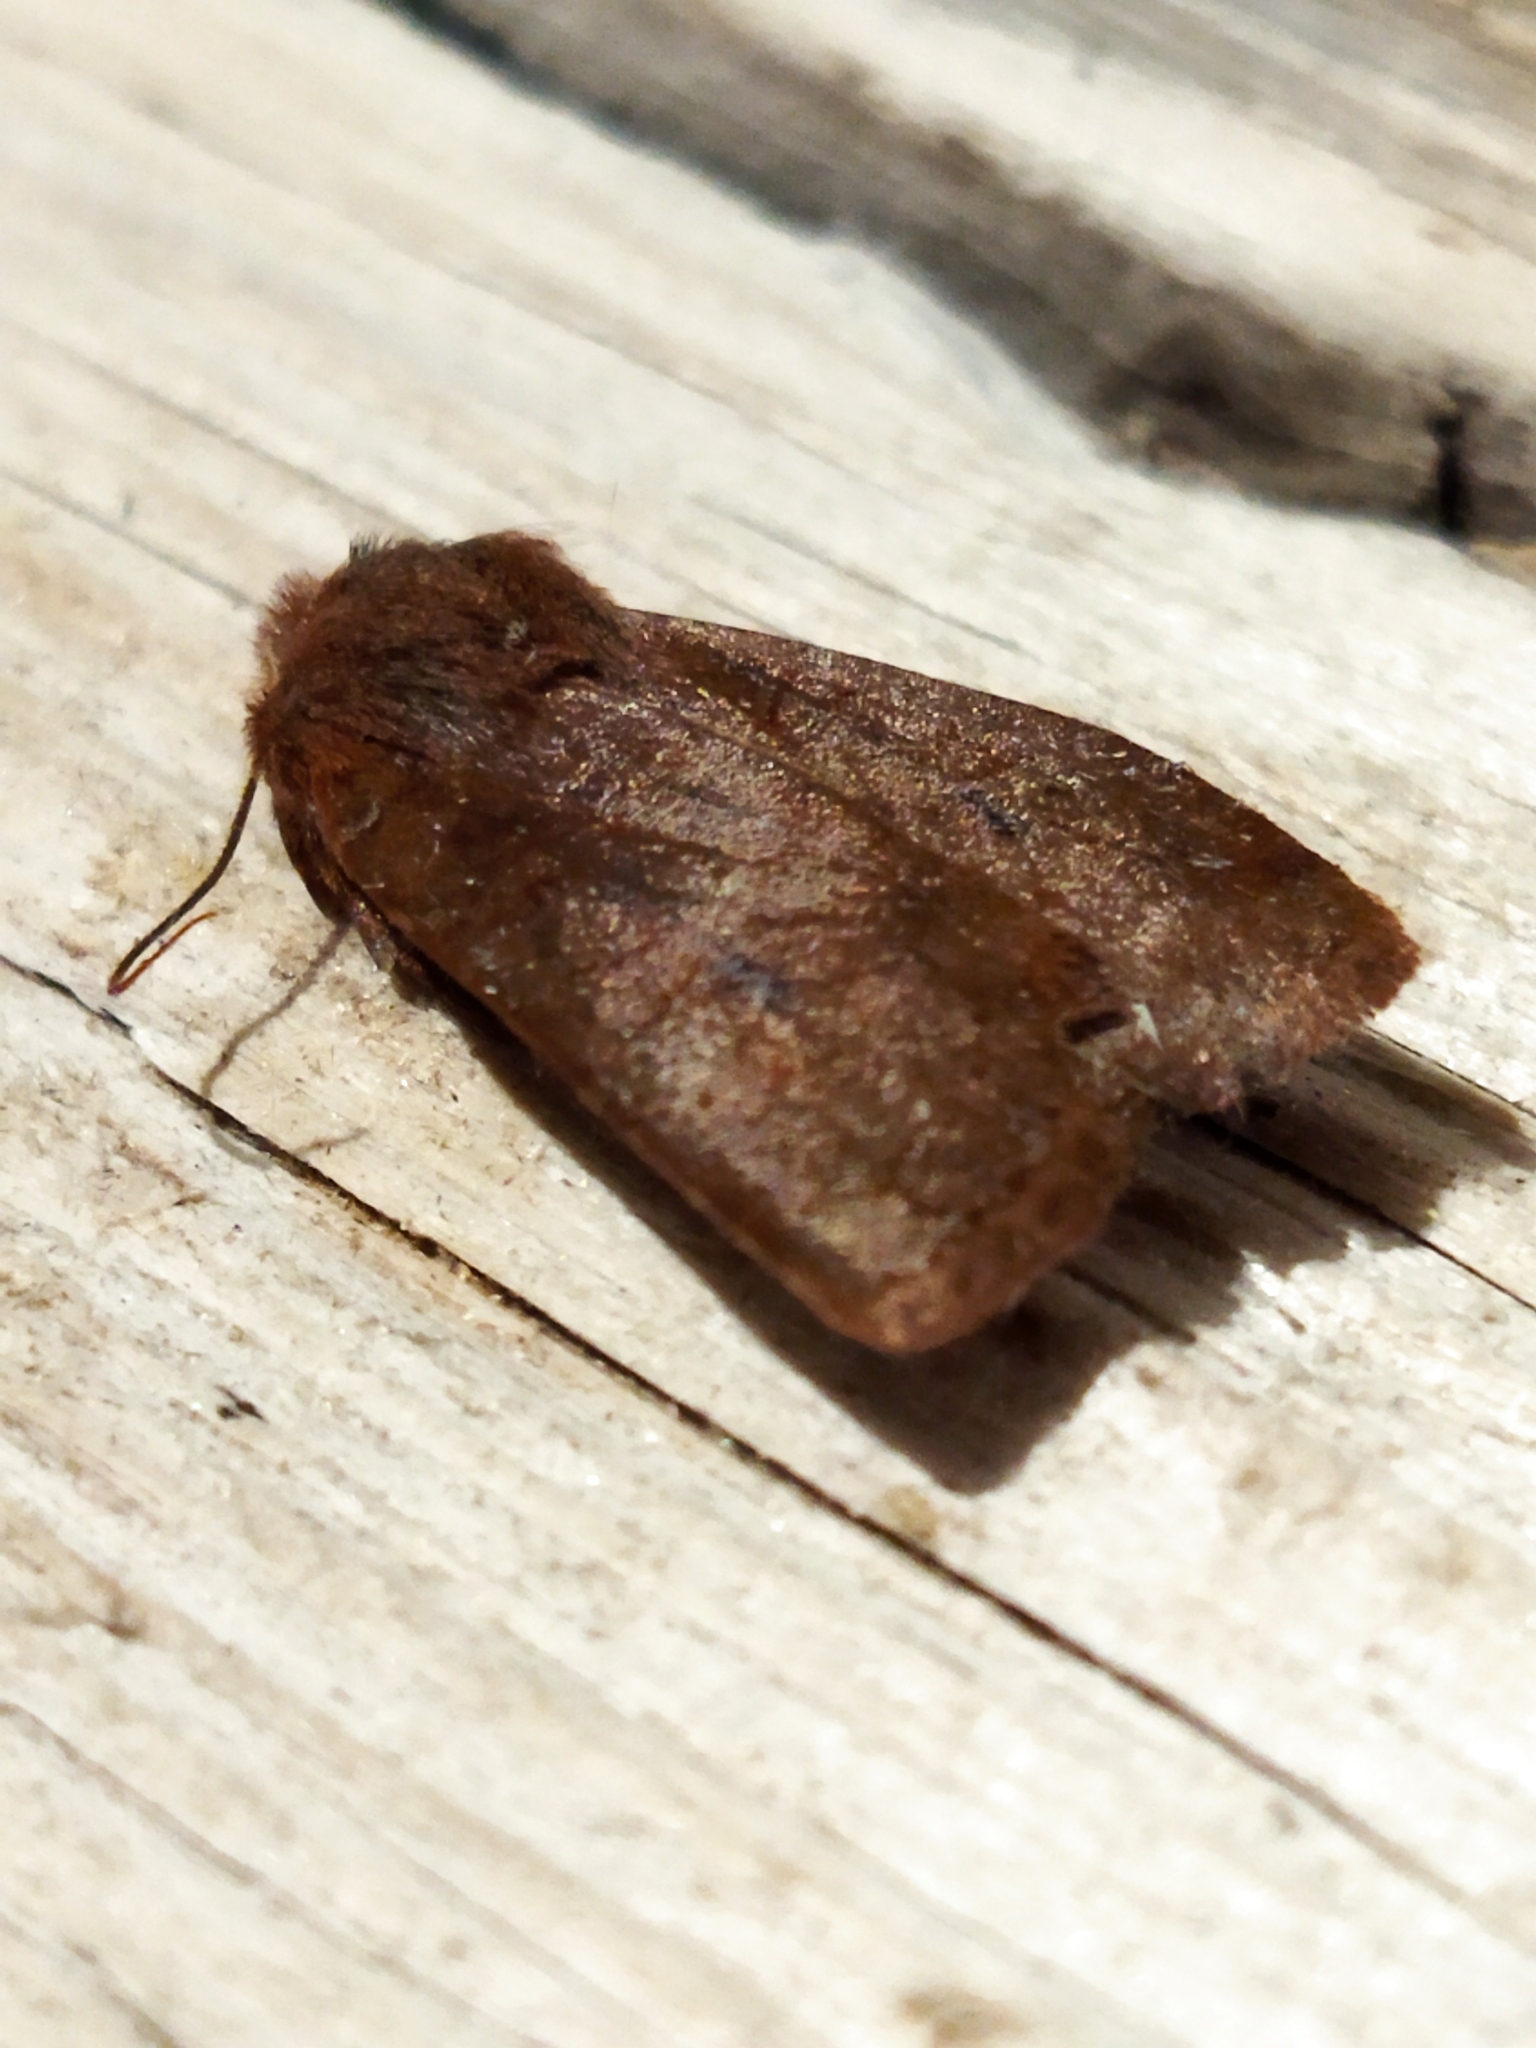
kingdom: Animalia
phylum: Arthropoda
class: Insecta
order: Lepidoptera
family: Noctuidae
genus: Conistra
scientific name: Conistra vaccinii
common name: Chestnut
